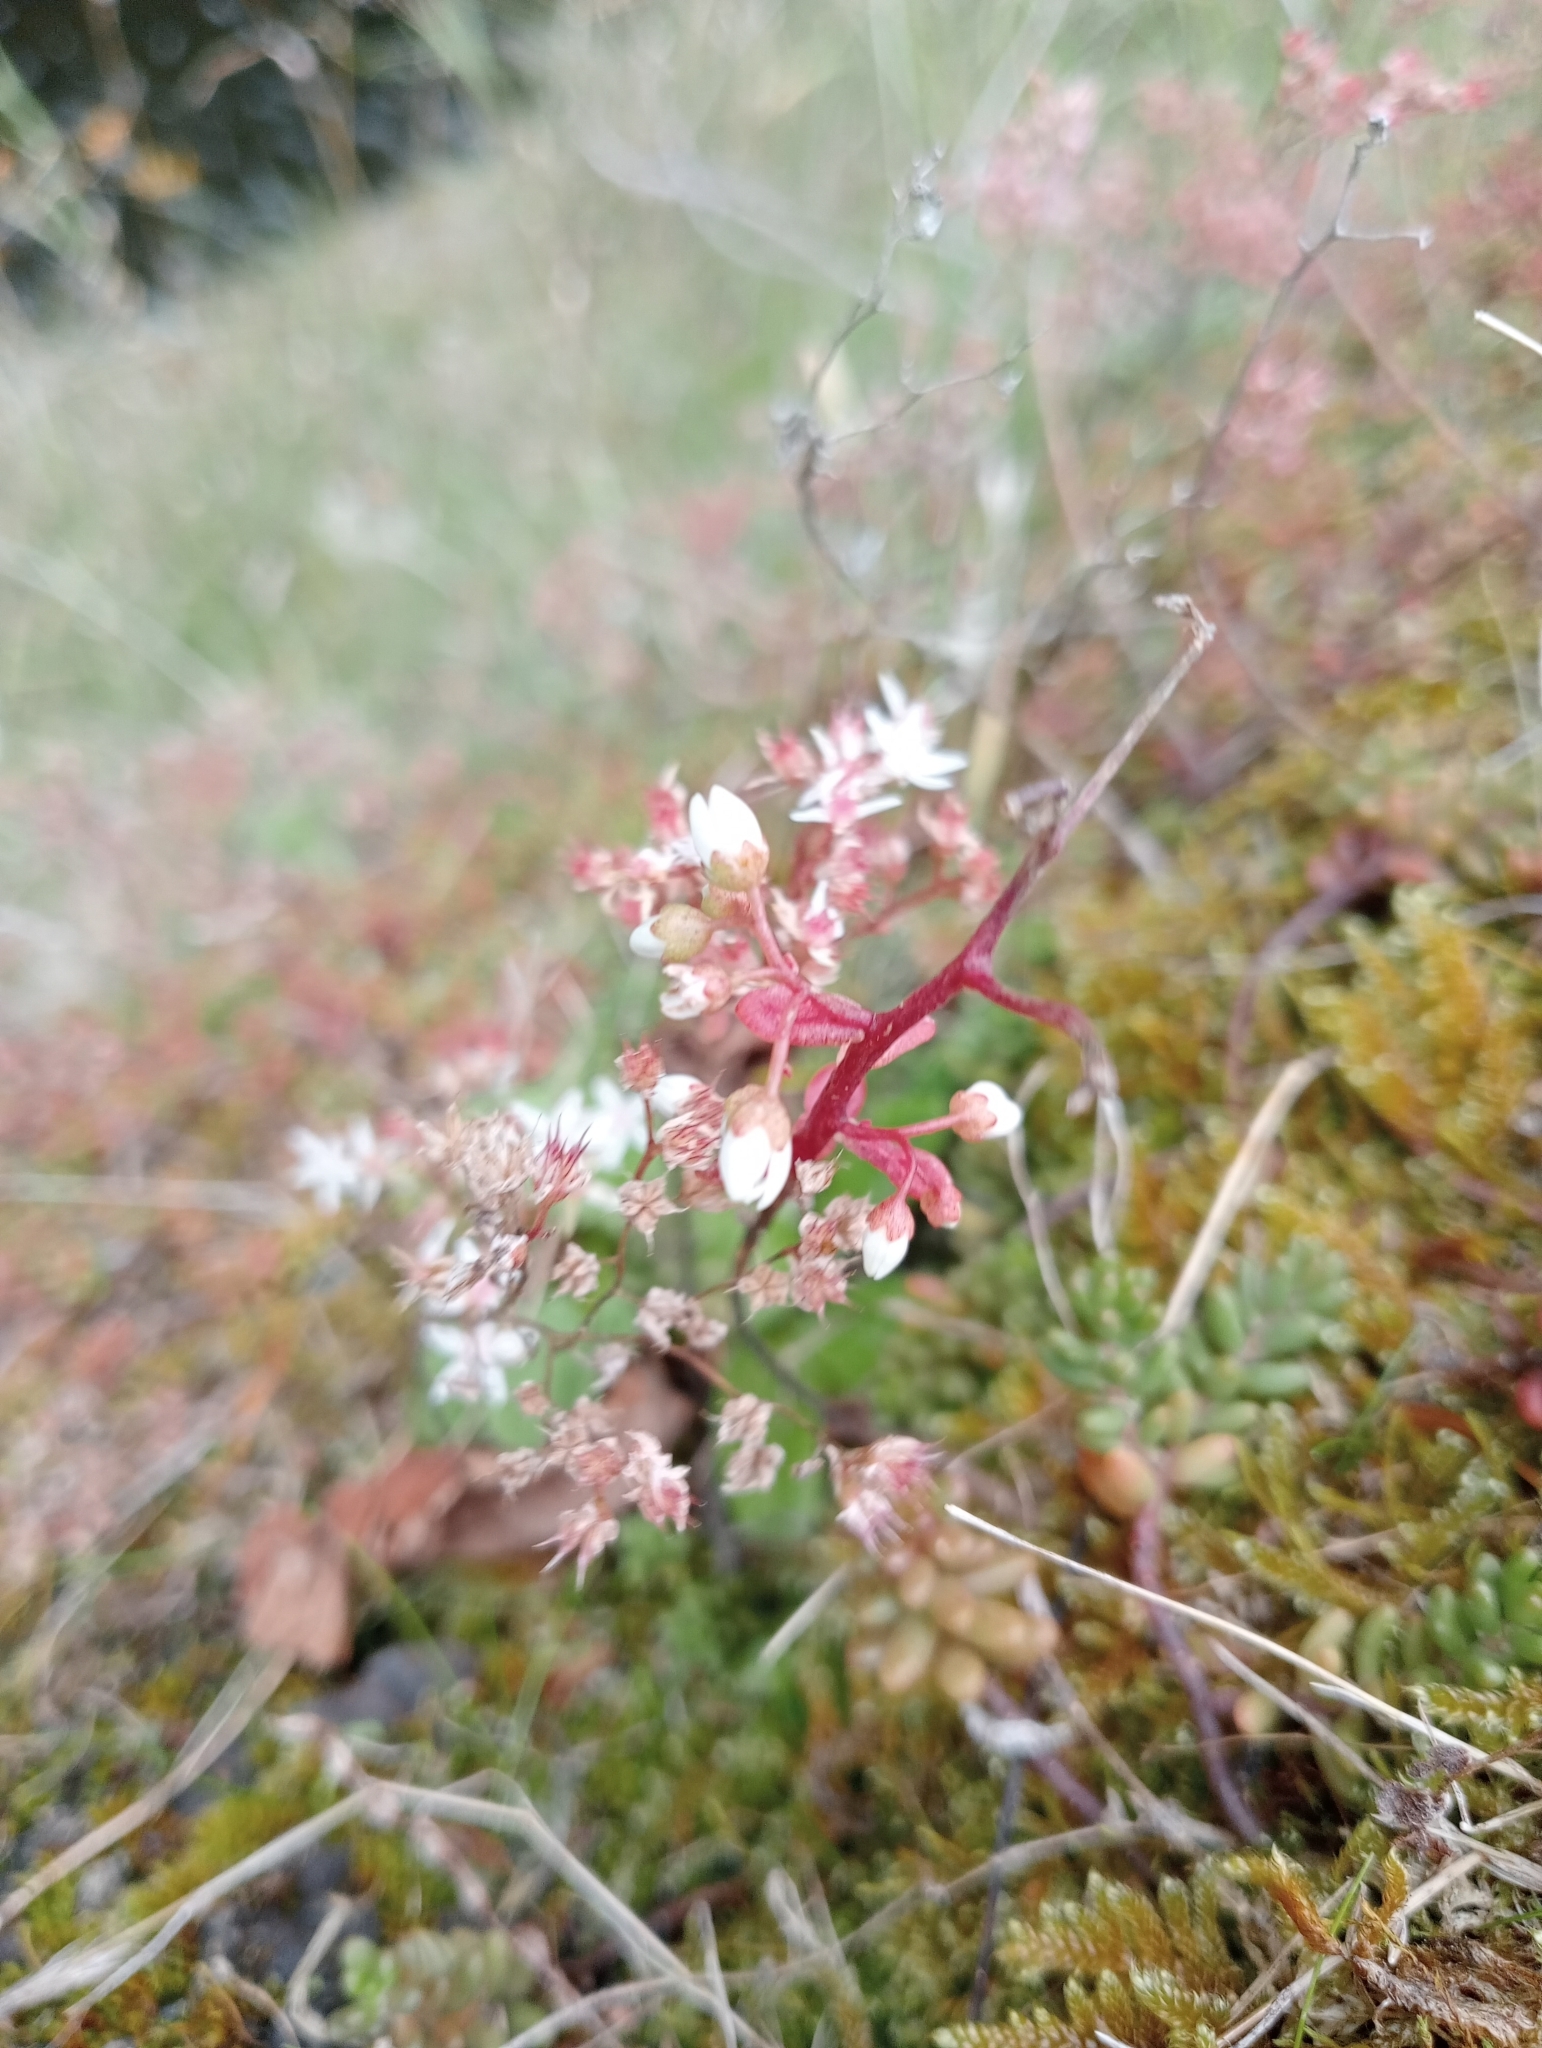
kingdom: Plantae
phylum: Tracheophyta
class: Magnoliopsida
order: Saxifragales
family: Crassulaceae
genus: Sedum
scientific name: Sedum album
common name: White stonecrop
